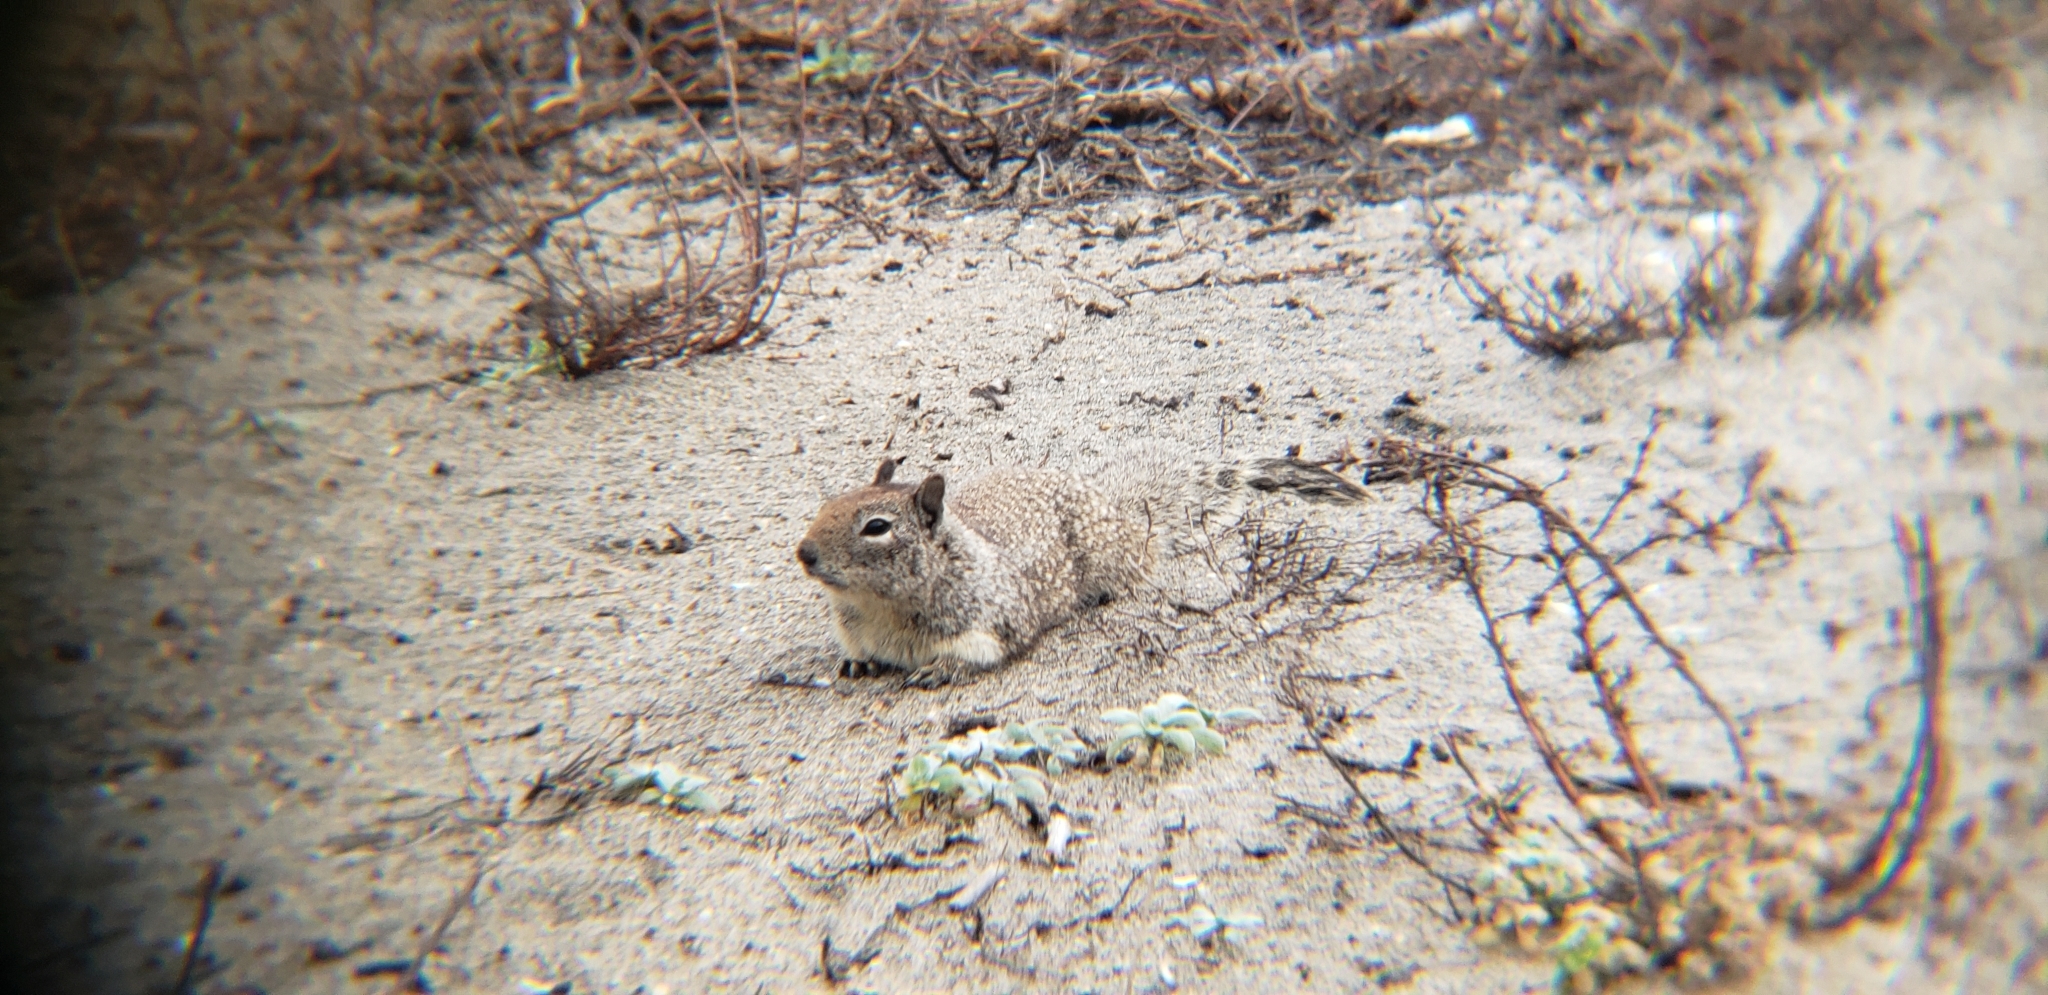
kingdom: Animalia
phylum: Chordata
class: Mammalia
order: Rodentia
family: Sciuridae
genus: Otospermophilus
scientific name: Otospermophilus beecheyi
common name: California ground squirrel
